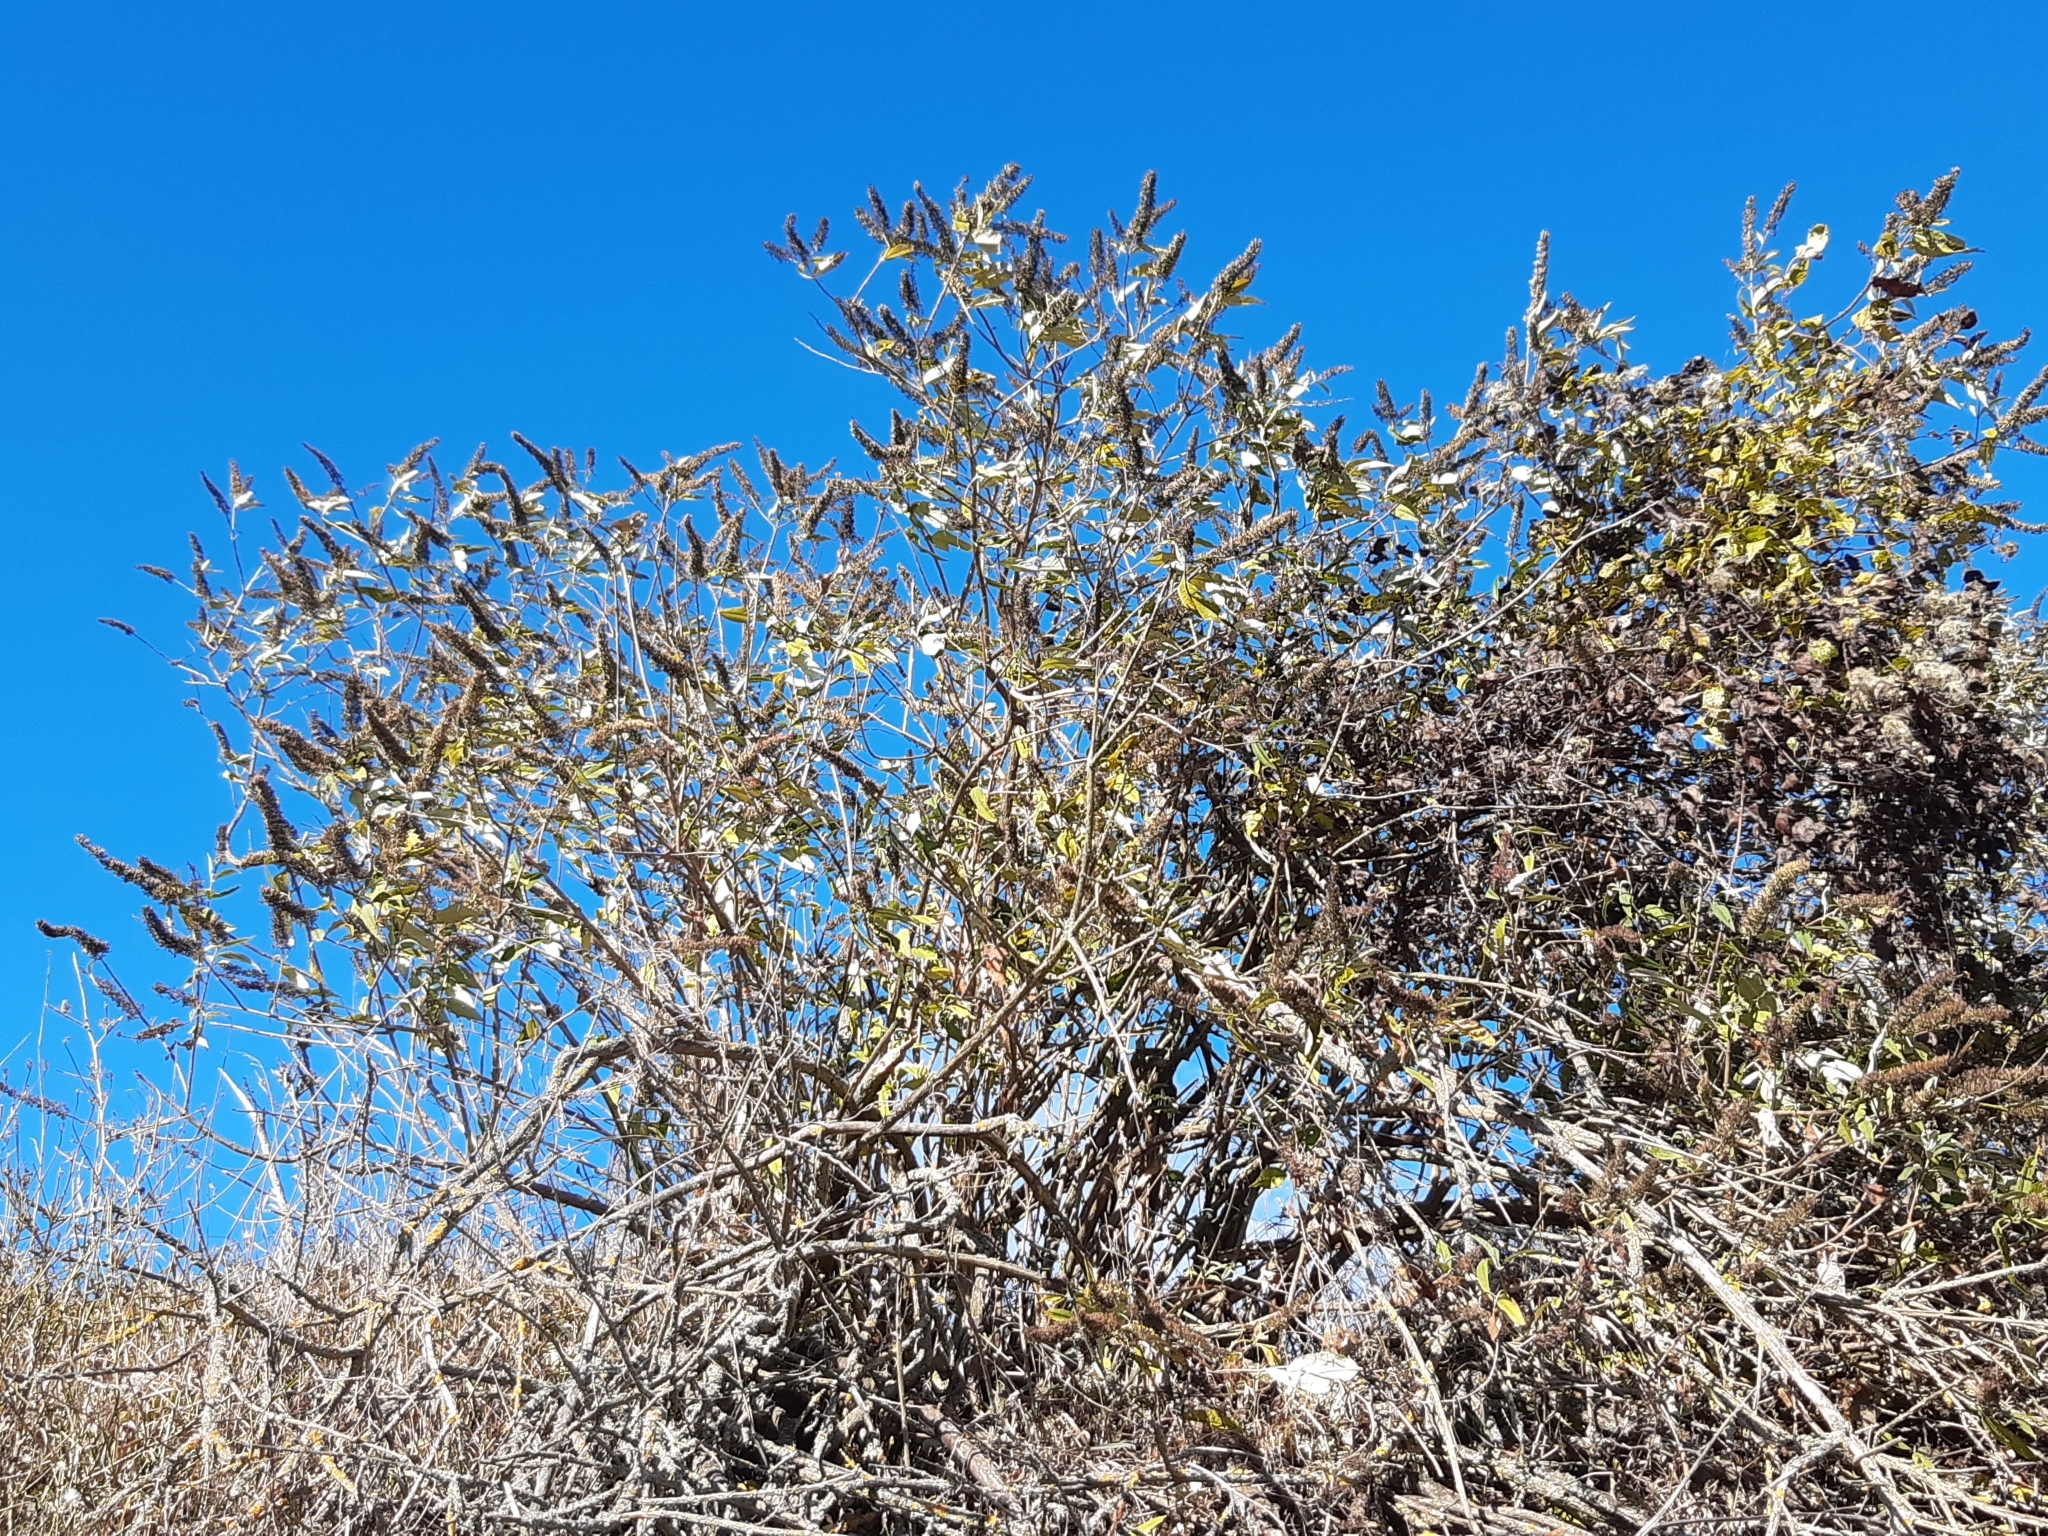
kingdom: Plantae
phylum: Tracheophyta
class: Magnoliopsida
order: Lamiales
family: Scrophulariaceae
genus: Buddleja
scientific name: Buddleja davidii
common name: Butterfly-bush
